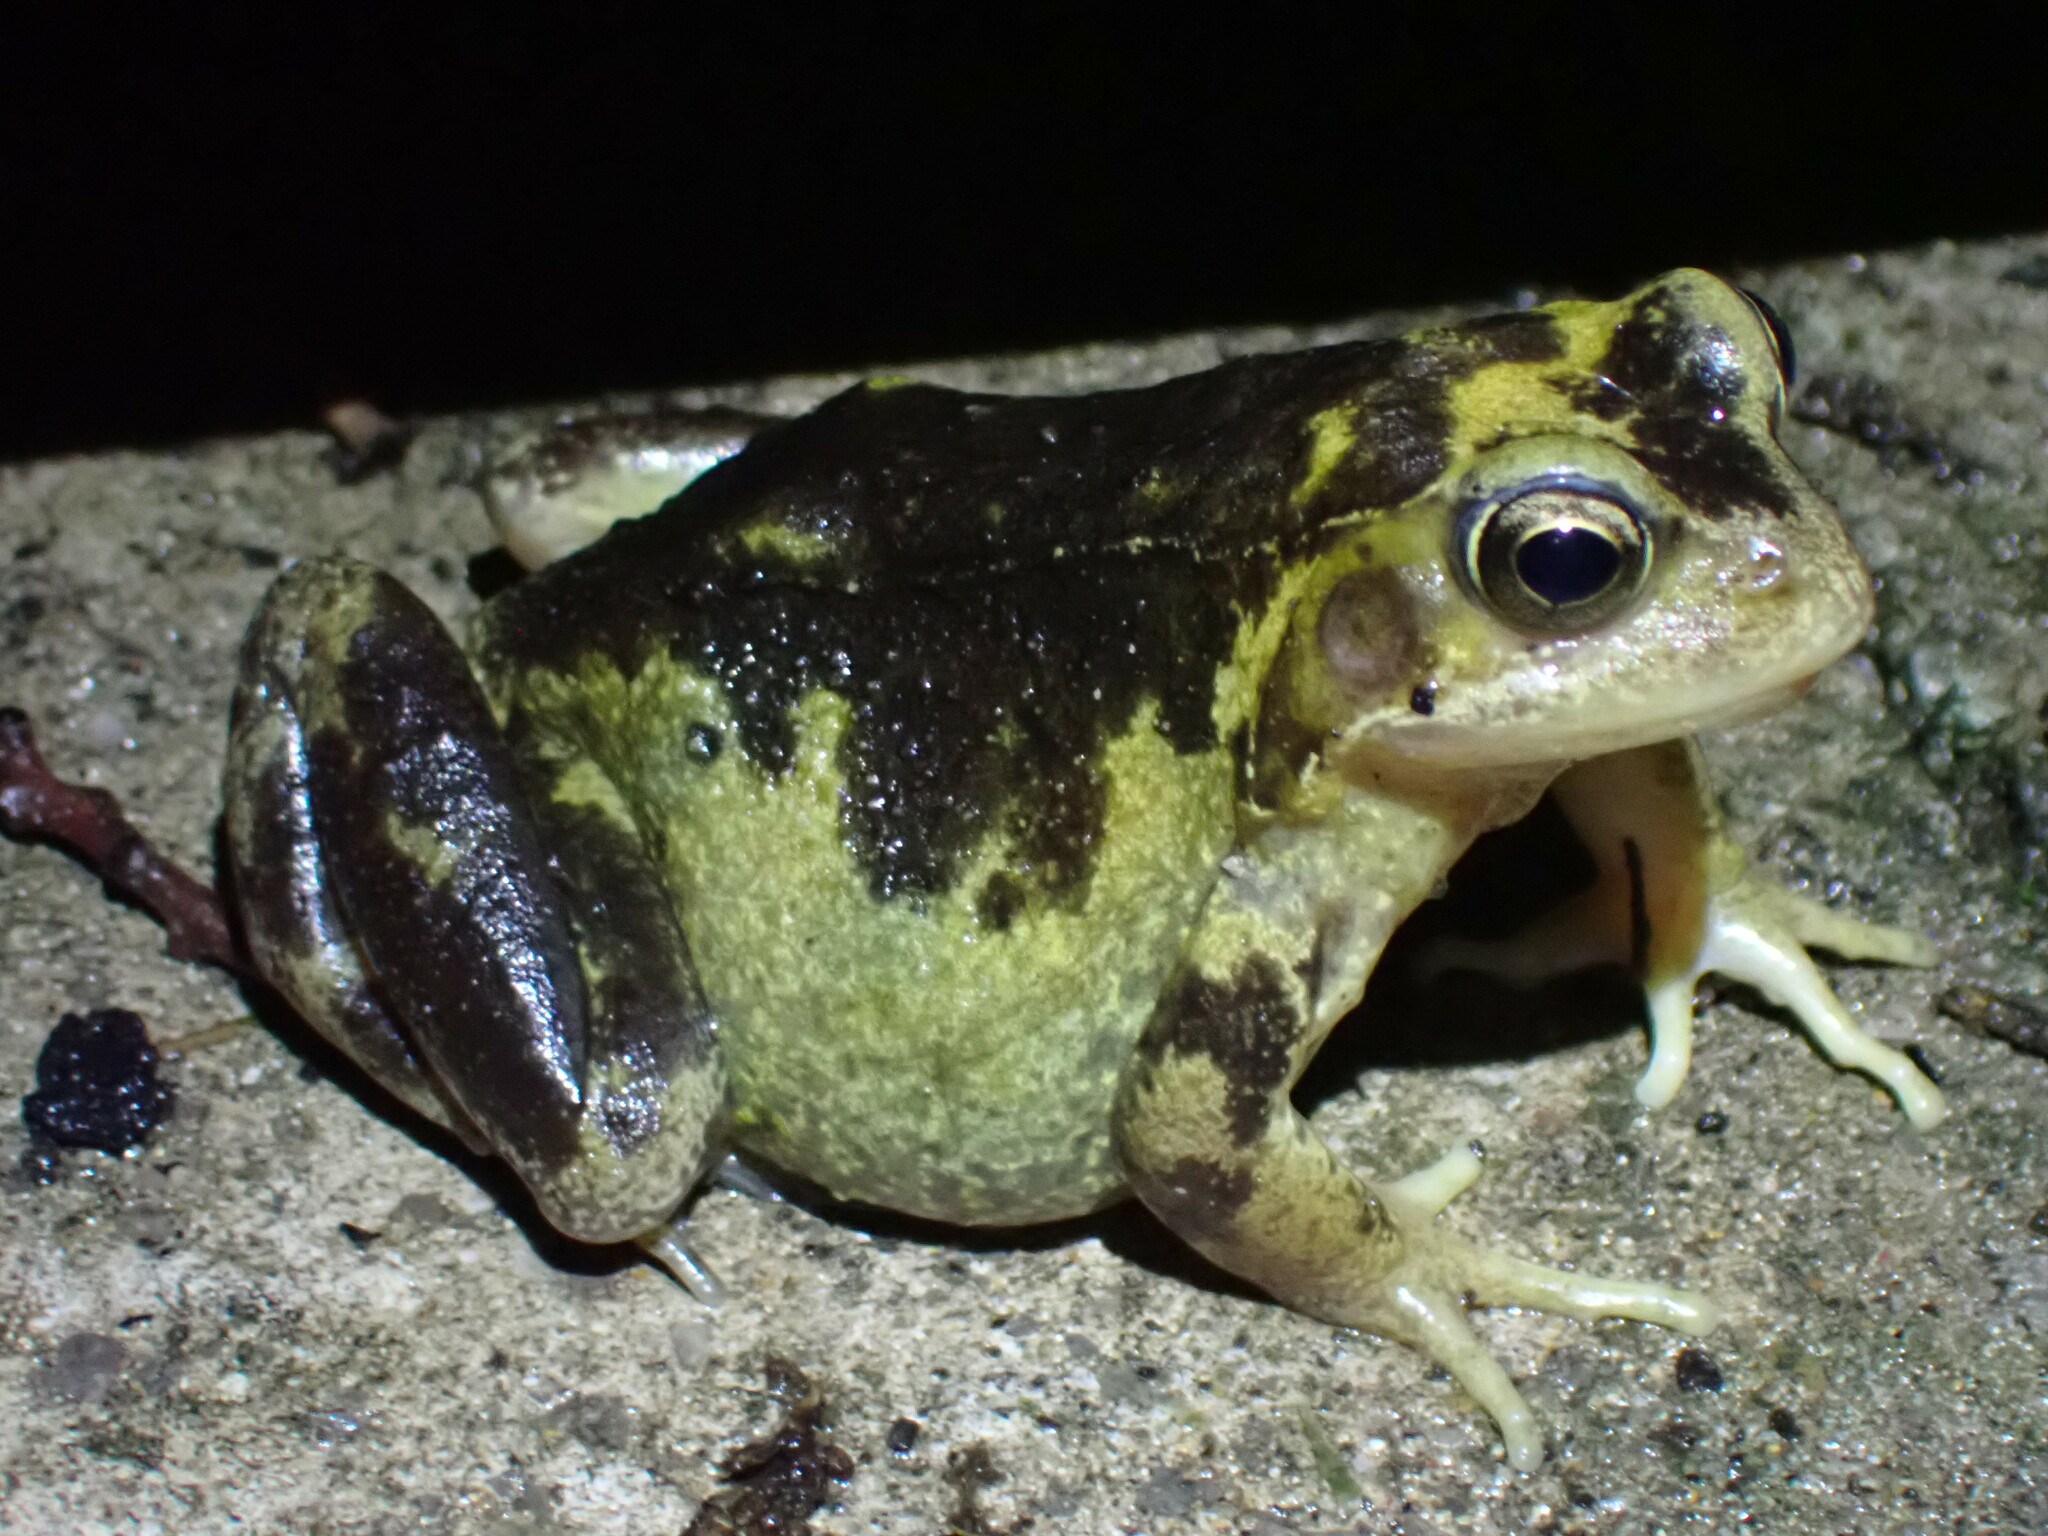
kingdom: Animalia
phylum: Chordata
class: Amphibia
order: Anura
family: Ranidae
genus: Rana
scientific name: Rana temporaria
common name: Common frog
